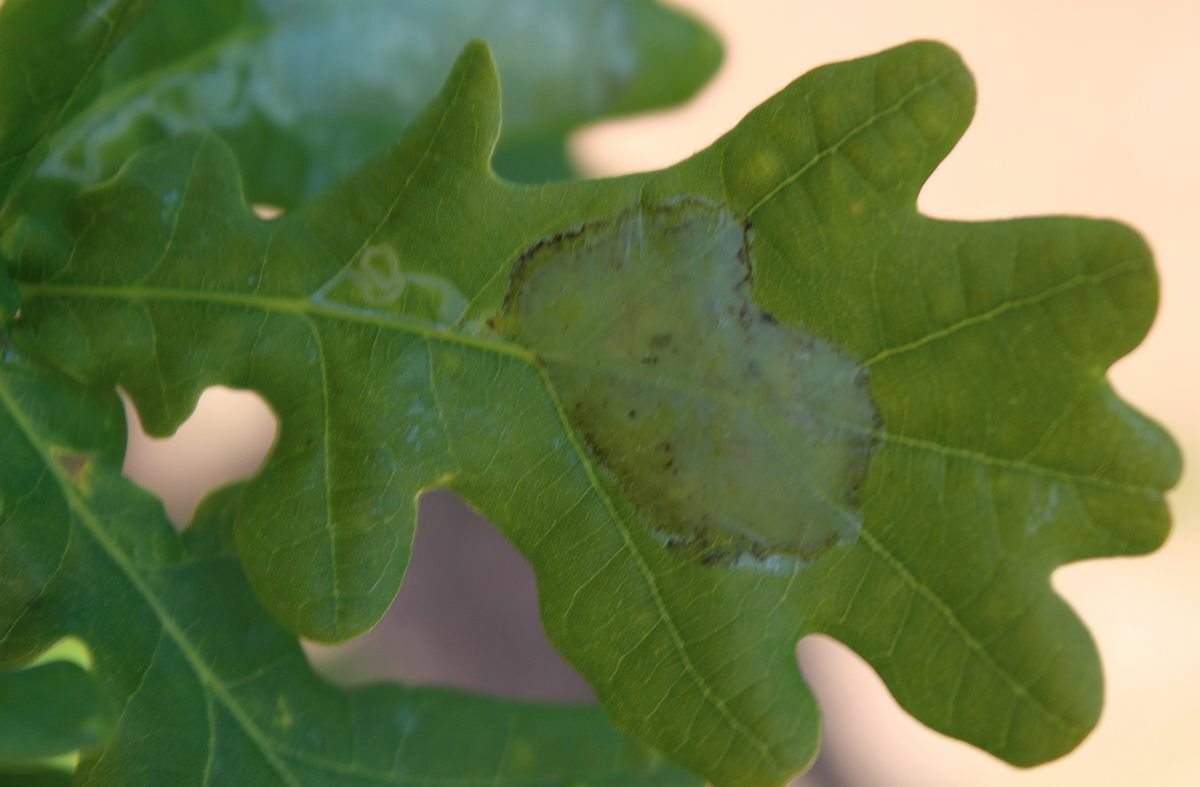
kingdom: Animalia
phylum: Arthropoda
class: Insecta
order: Lepidoptera
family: Gracillariidae
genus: Acrocercops
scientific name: Acrocercops brongniardella
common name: Brown oak slender
